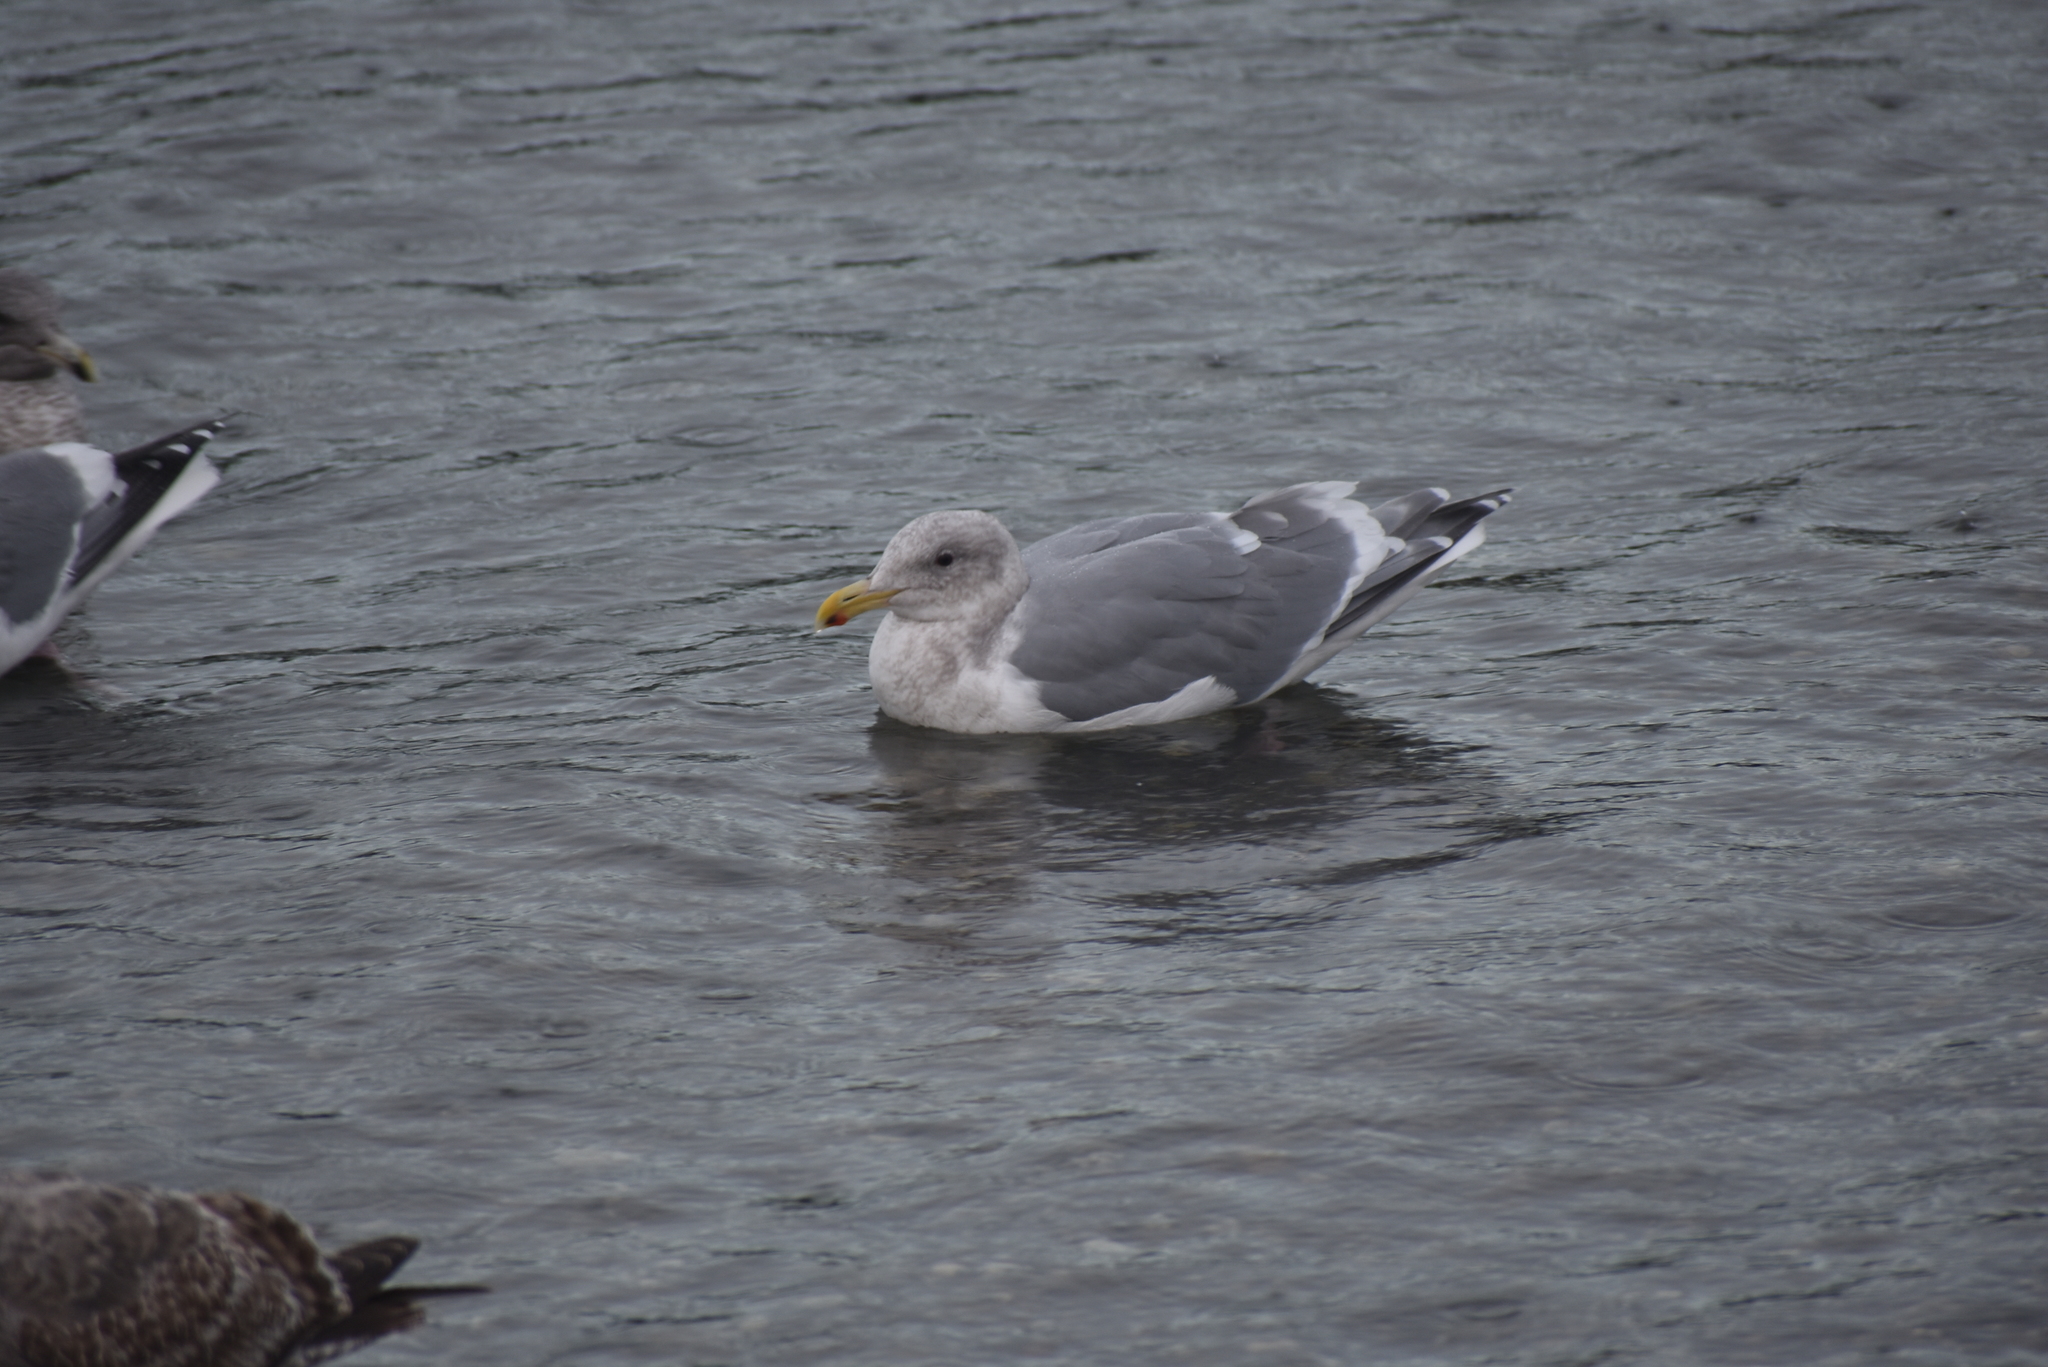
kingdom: Animalia
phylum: Chordata
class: Aves
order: Charadriiformes
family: Laridae
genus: Larus
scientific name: Larus
